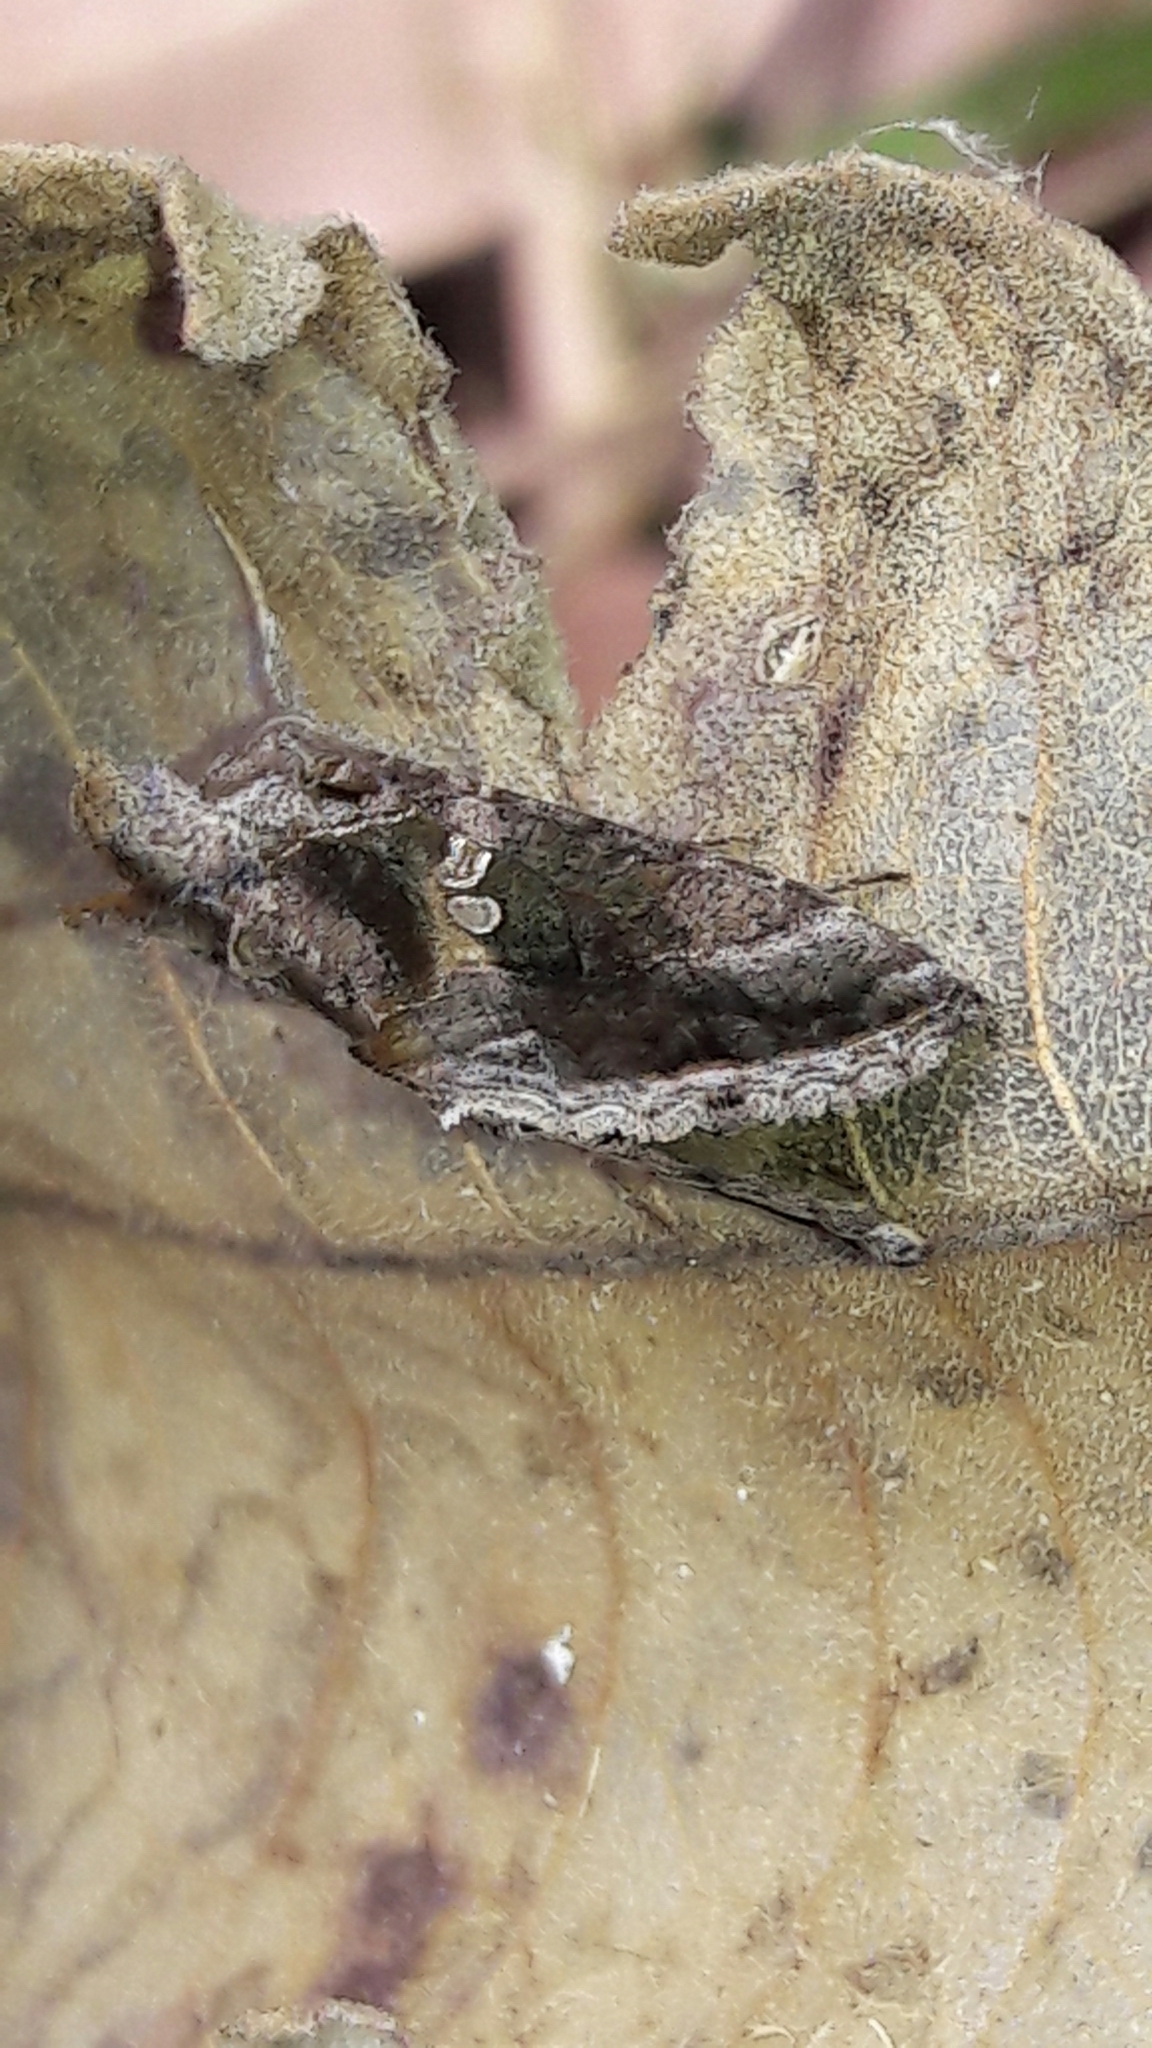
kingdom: Animalia
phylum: Arthropoda
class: Insecta
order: Lepidoptera
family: Noctuidae
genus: Chrysodeixis
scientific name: Chrysodeixis includens
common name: Cutworm moth
